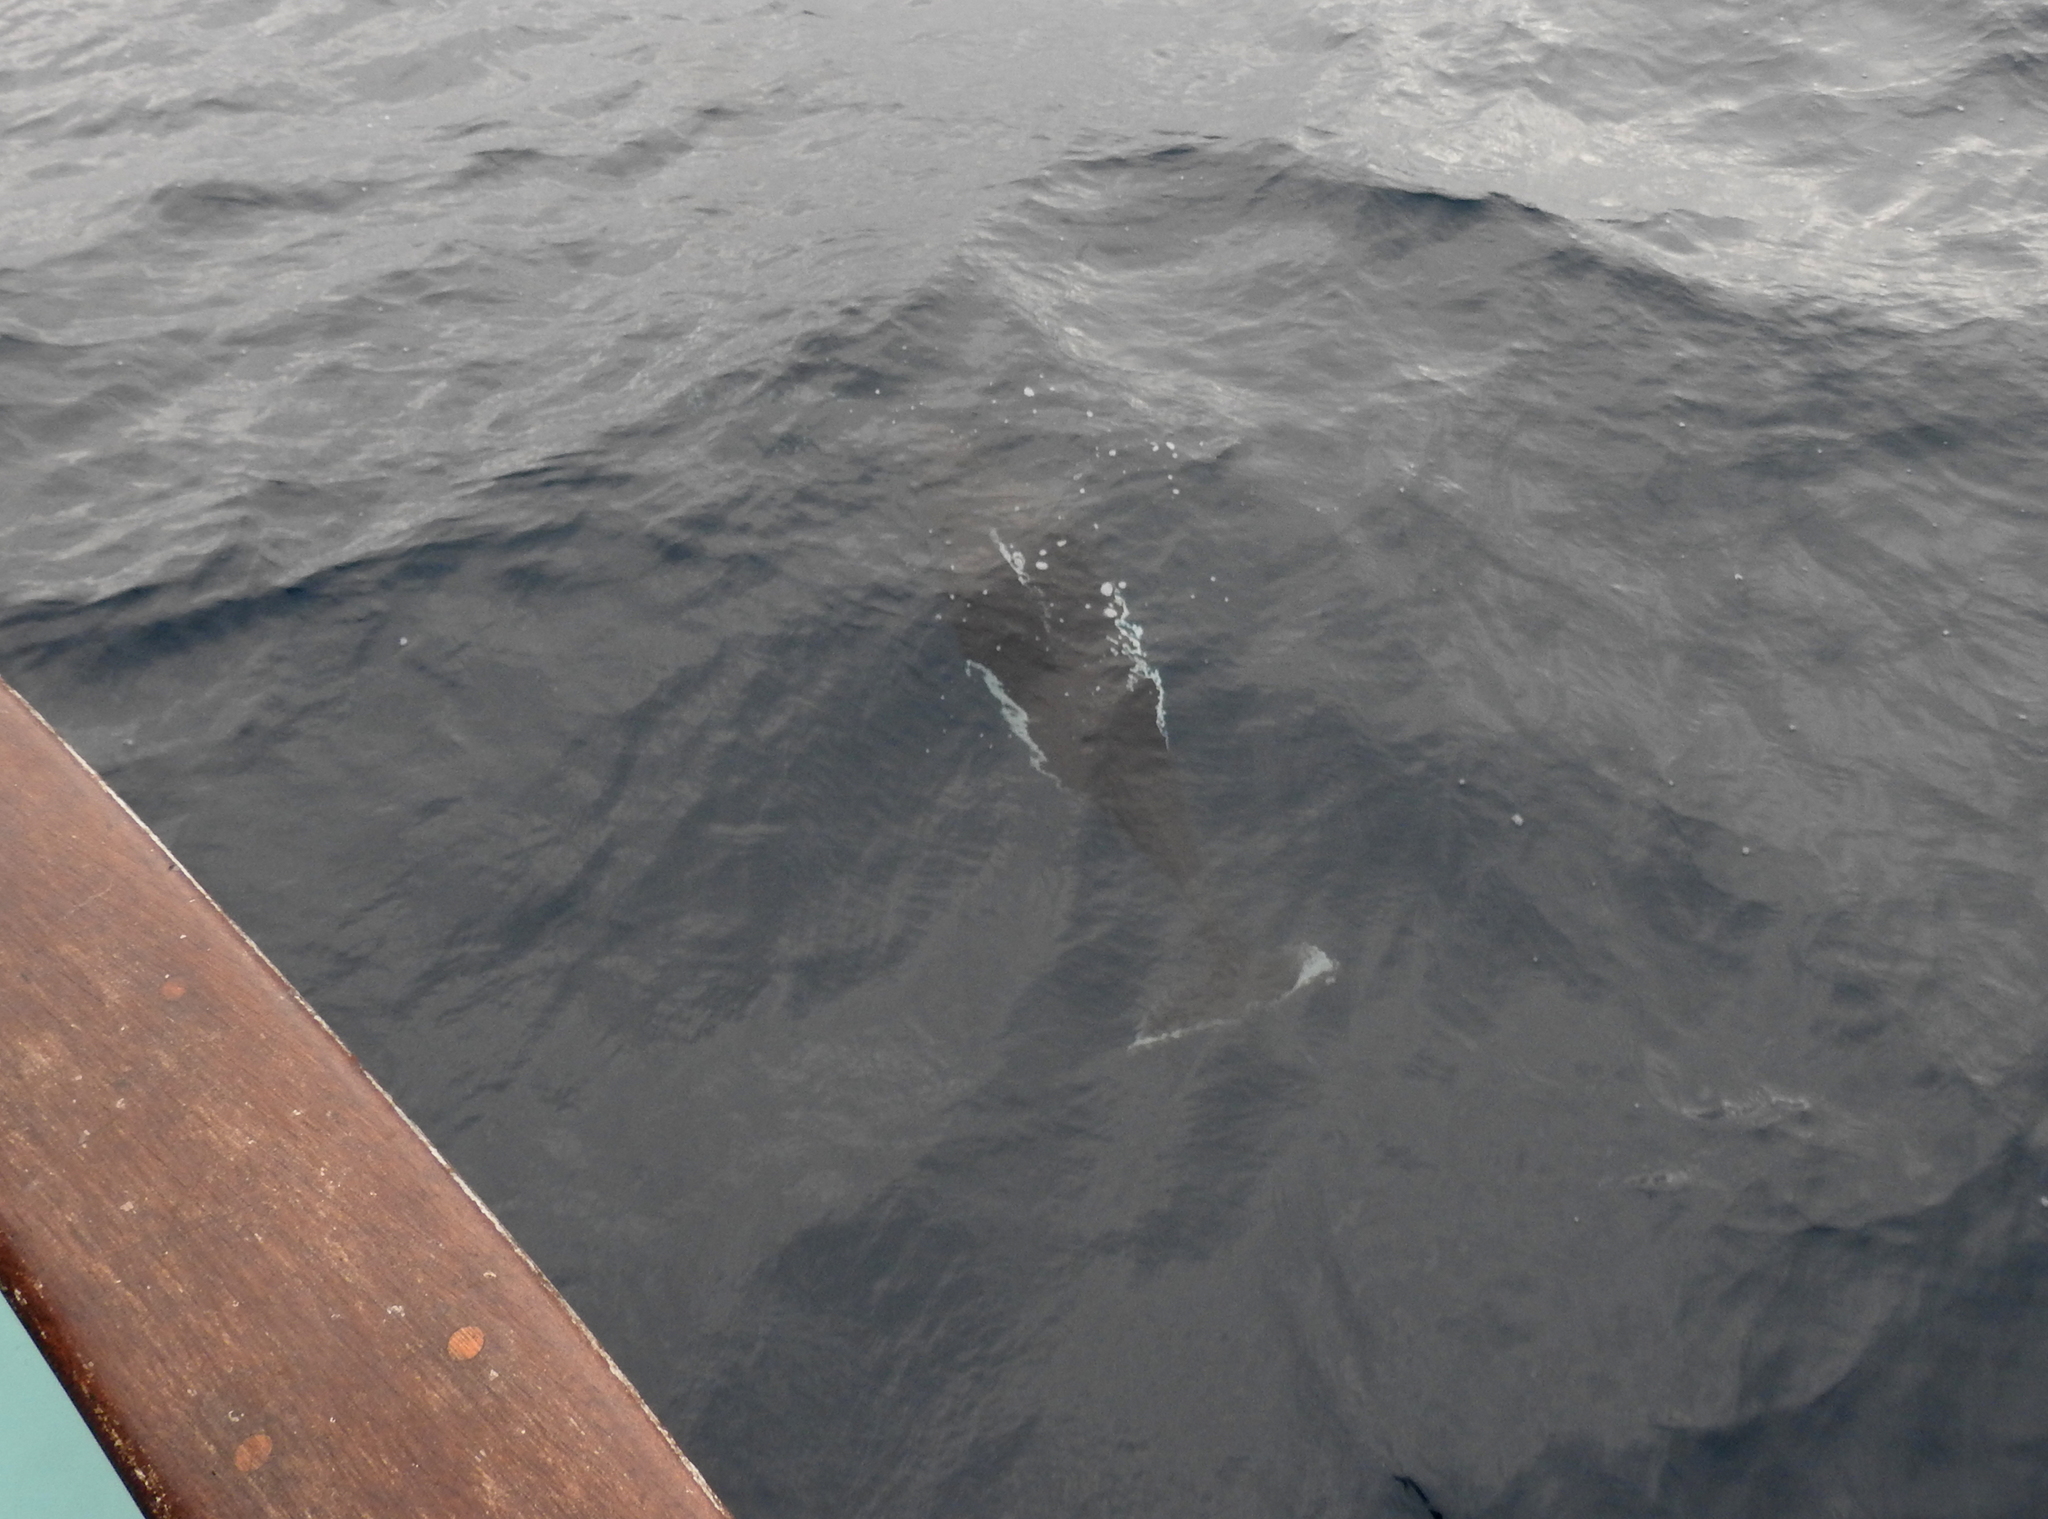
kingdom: Animalia
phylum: Chordata
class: Mammalia
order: Cetacea
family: Phocoenidae
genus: Phocoenoides
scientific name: Phocoenoides dalli
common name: Dall's porpoise
